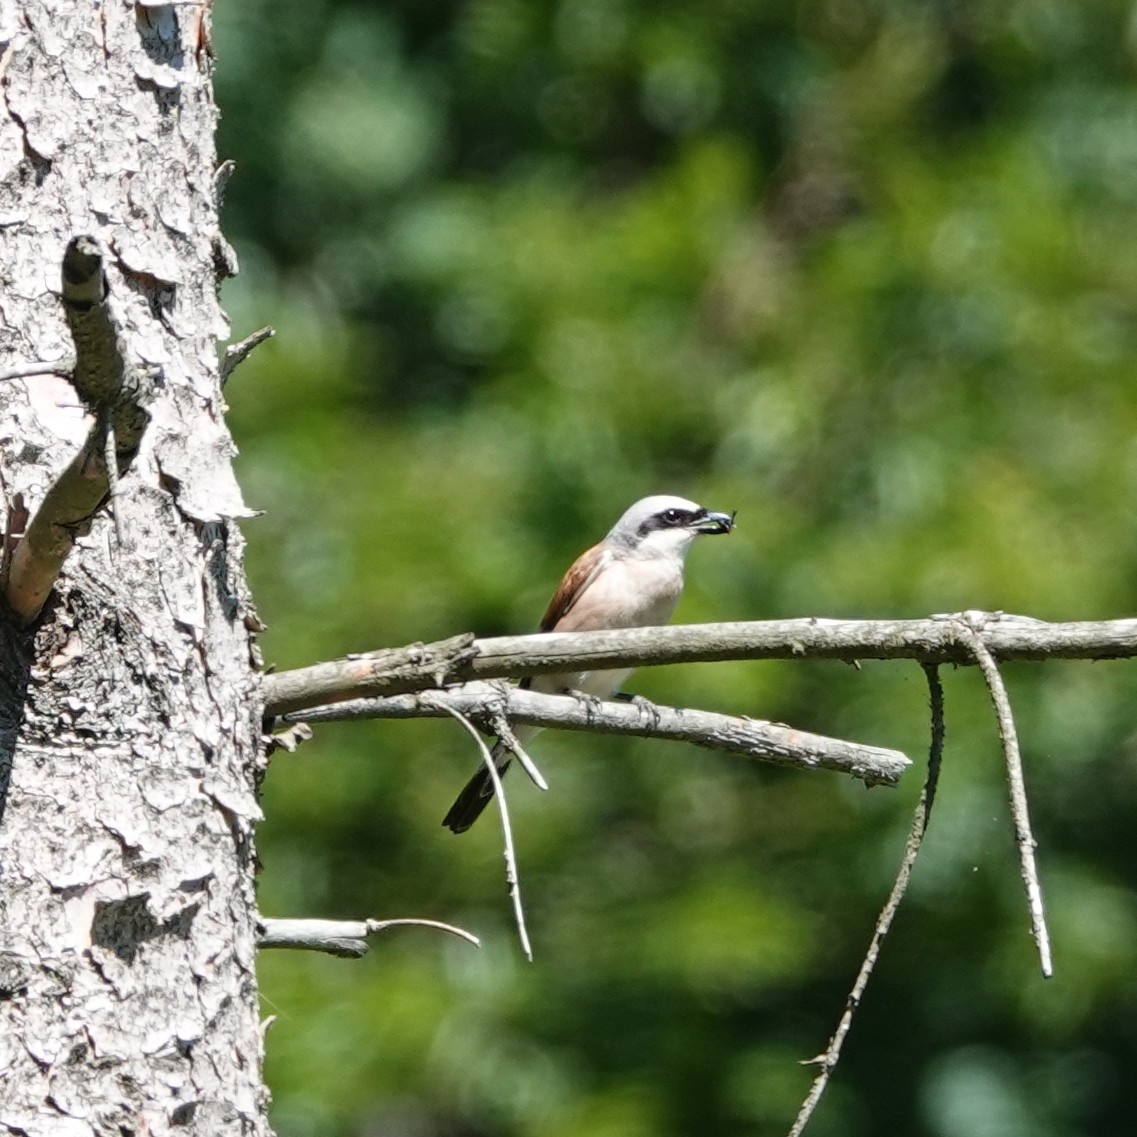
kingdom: Animalia
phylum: Chordata
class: Aves
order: Passeriformes
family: Laniidae
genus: Lanius
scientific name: Lanius collurio
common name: Red-backed shrike
